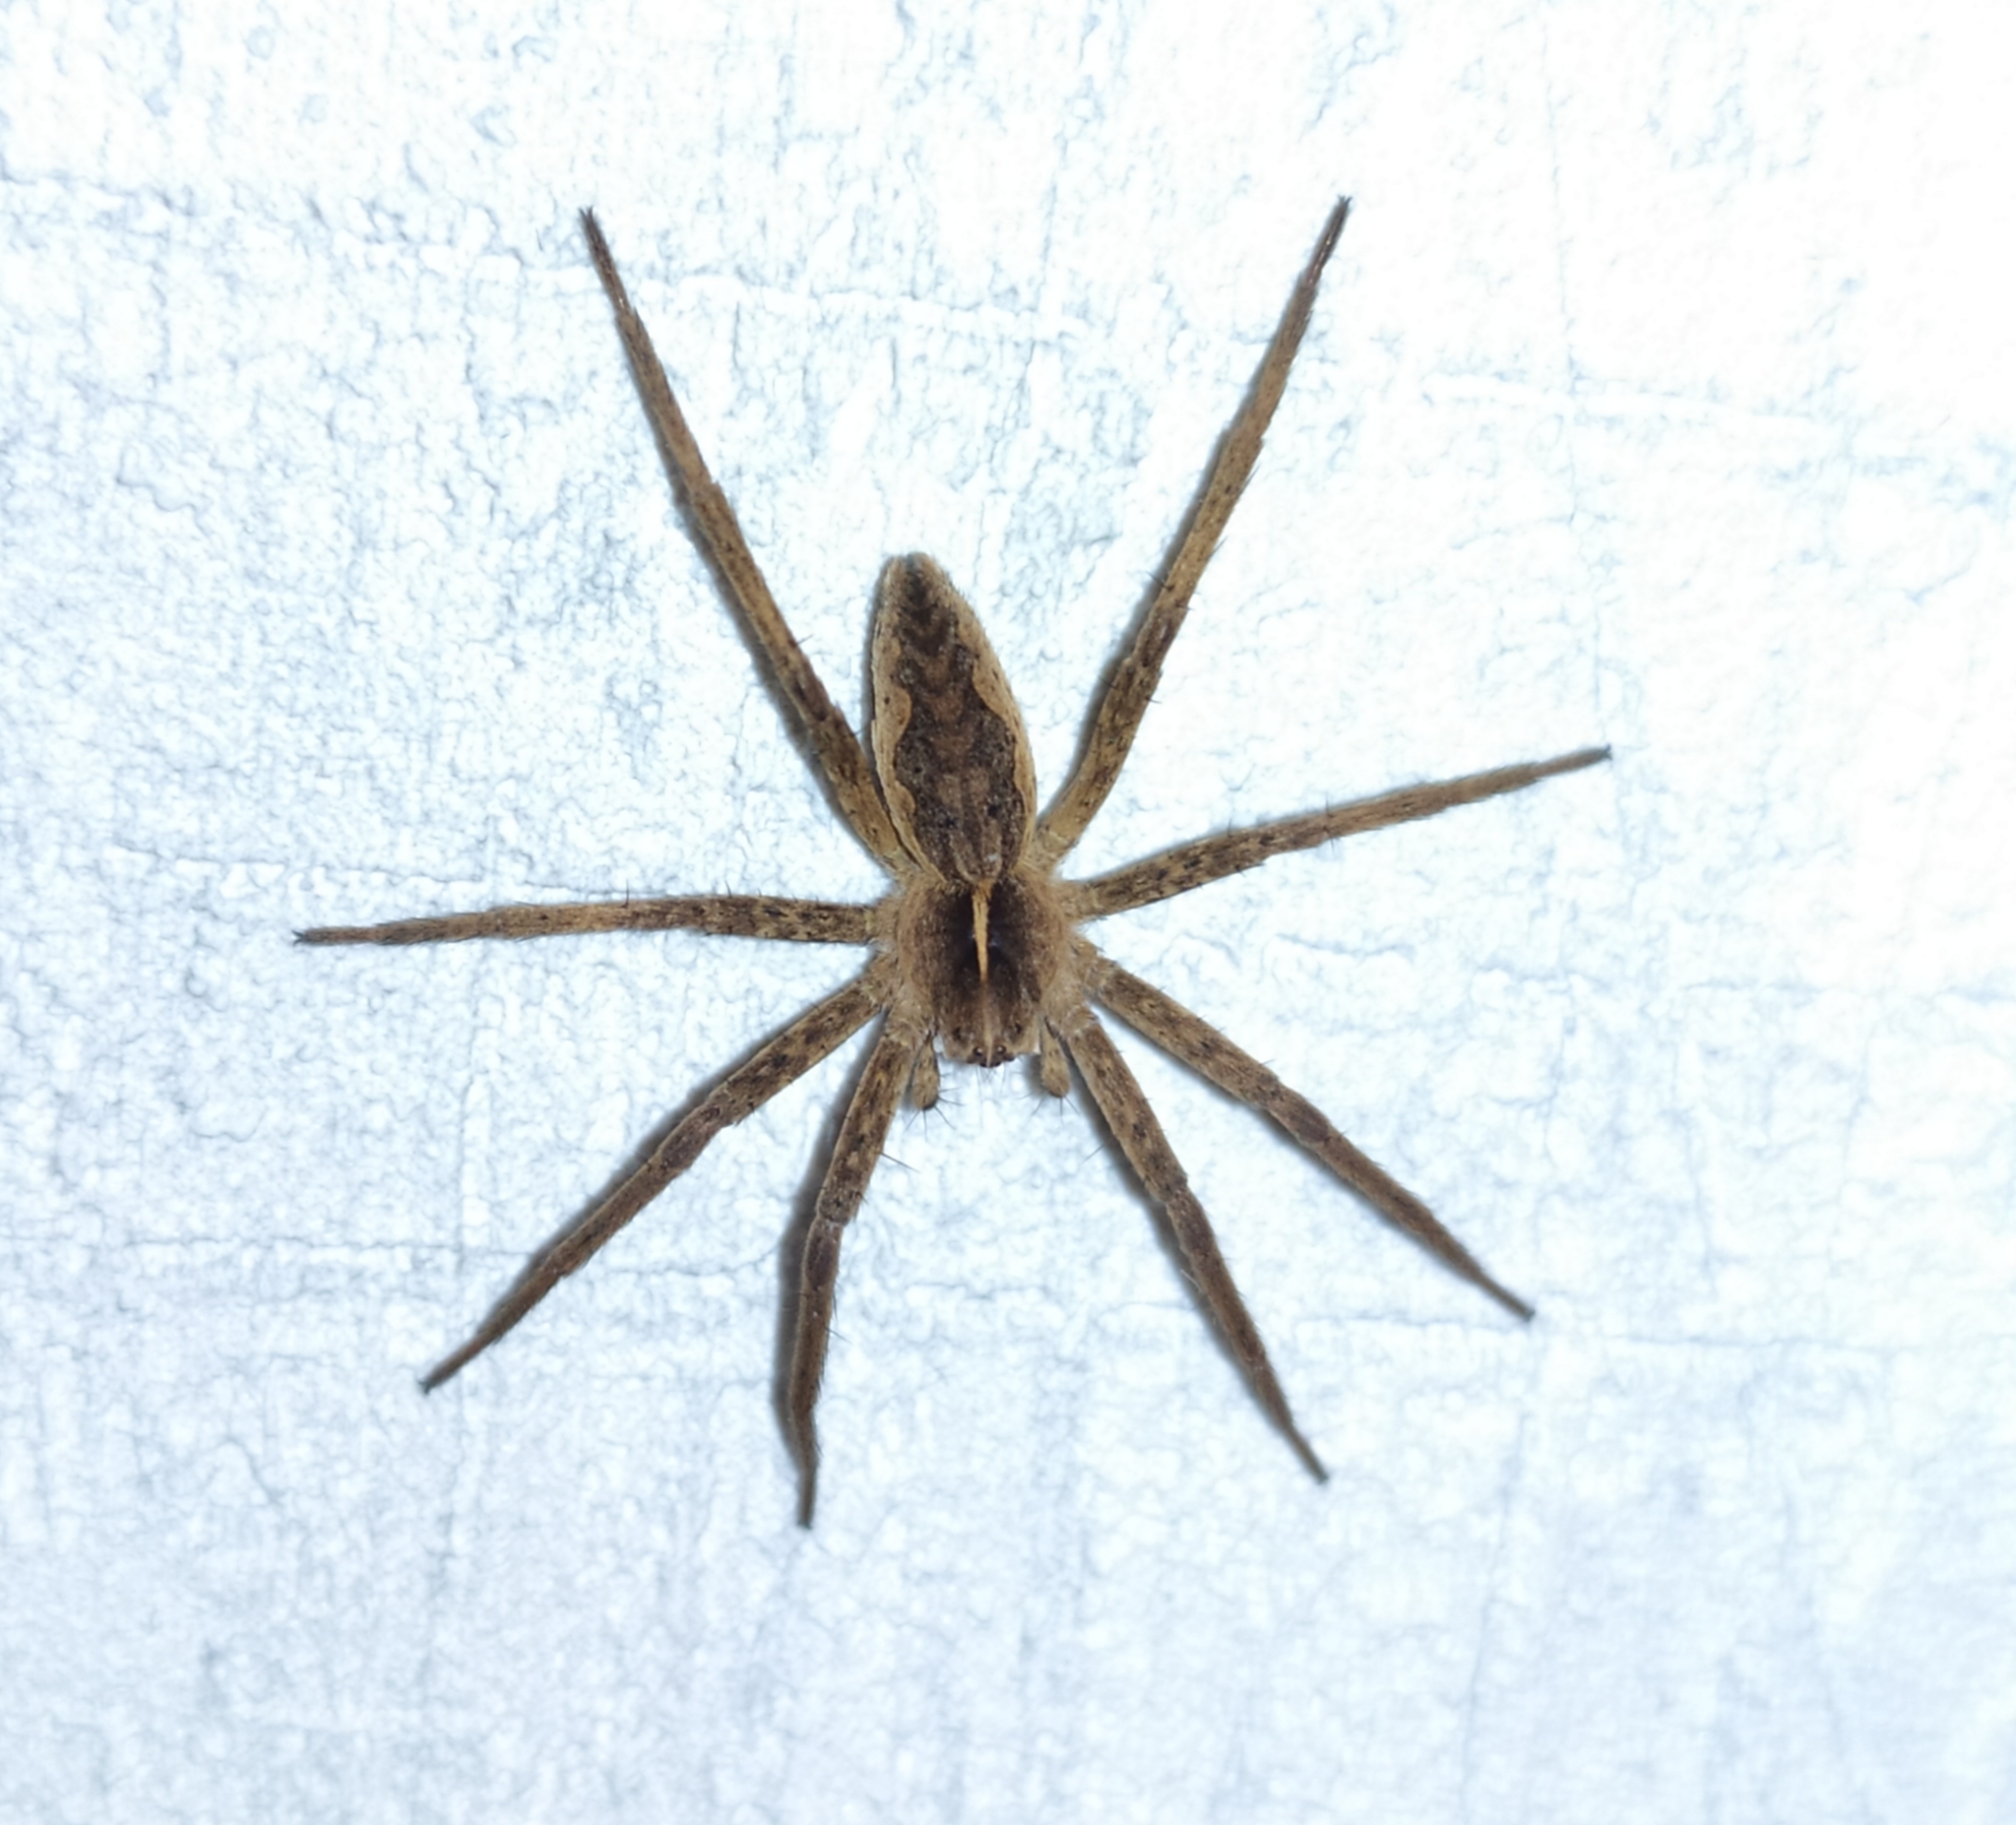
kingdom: Animalia
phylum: Arthropoda
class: Arachnida
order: Araneae
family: Pisauridae
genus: Pisaura
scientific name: Pisaura mirabilis
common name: Tent spider
